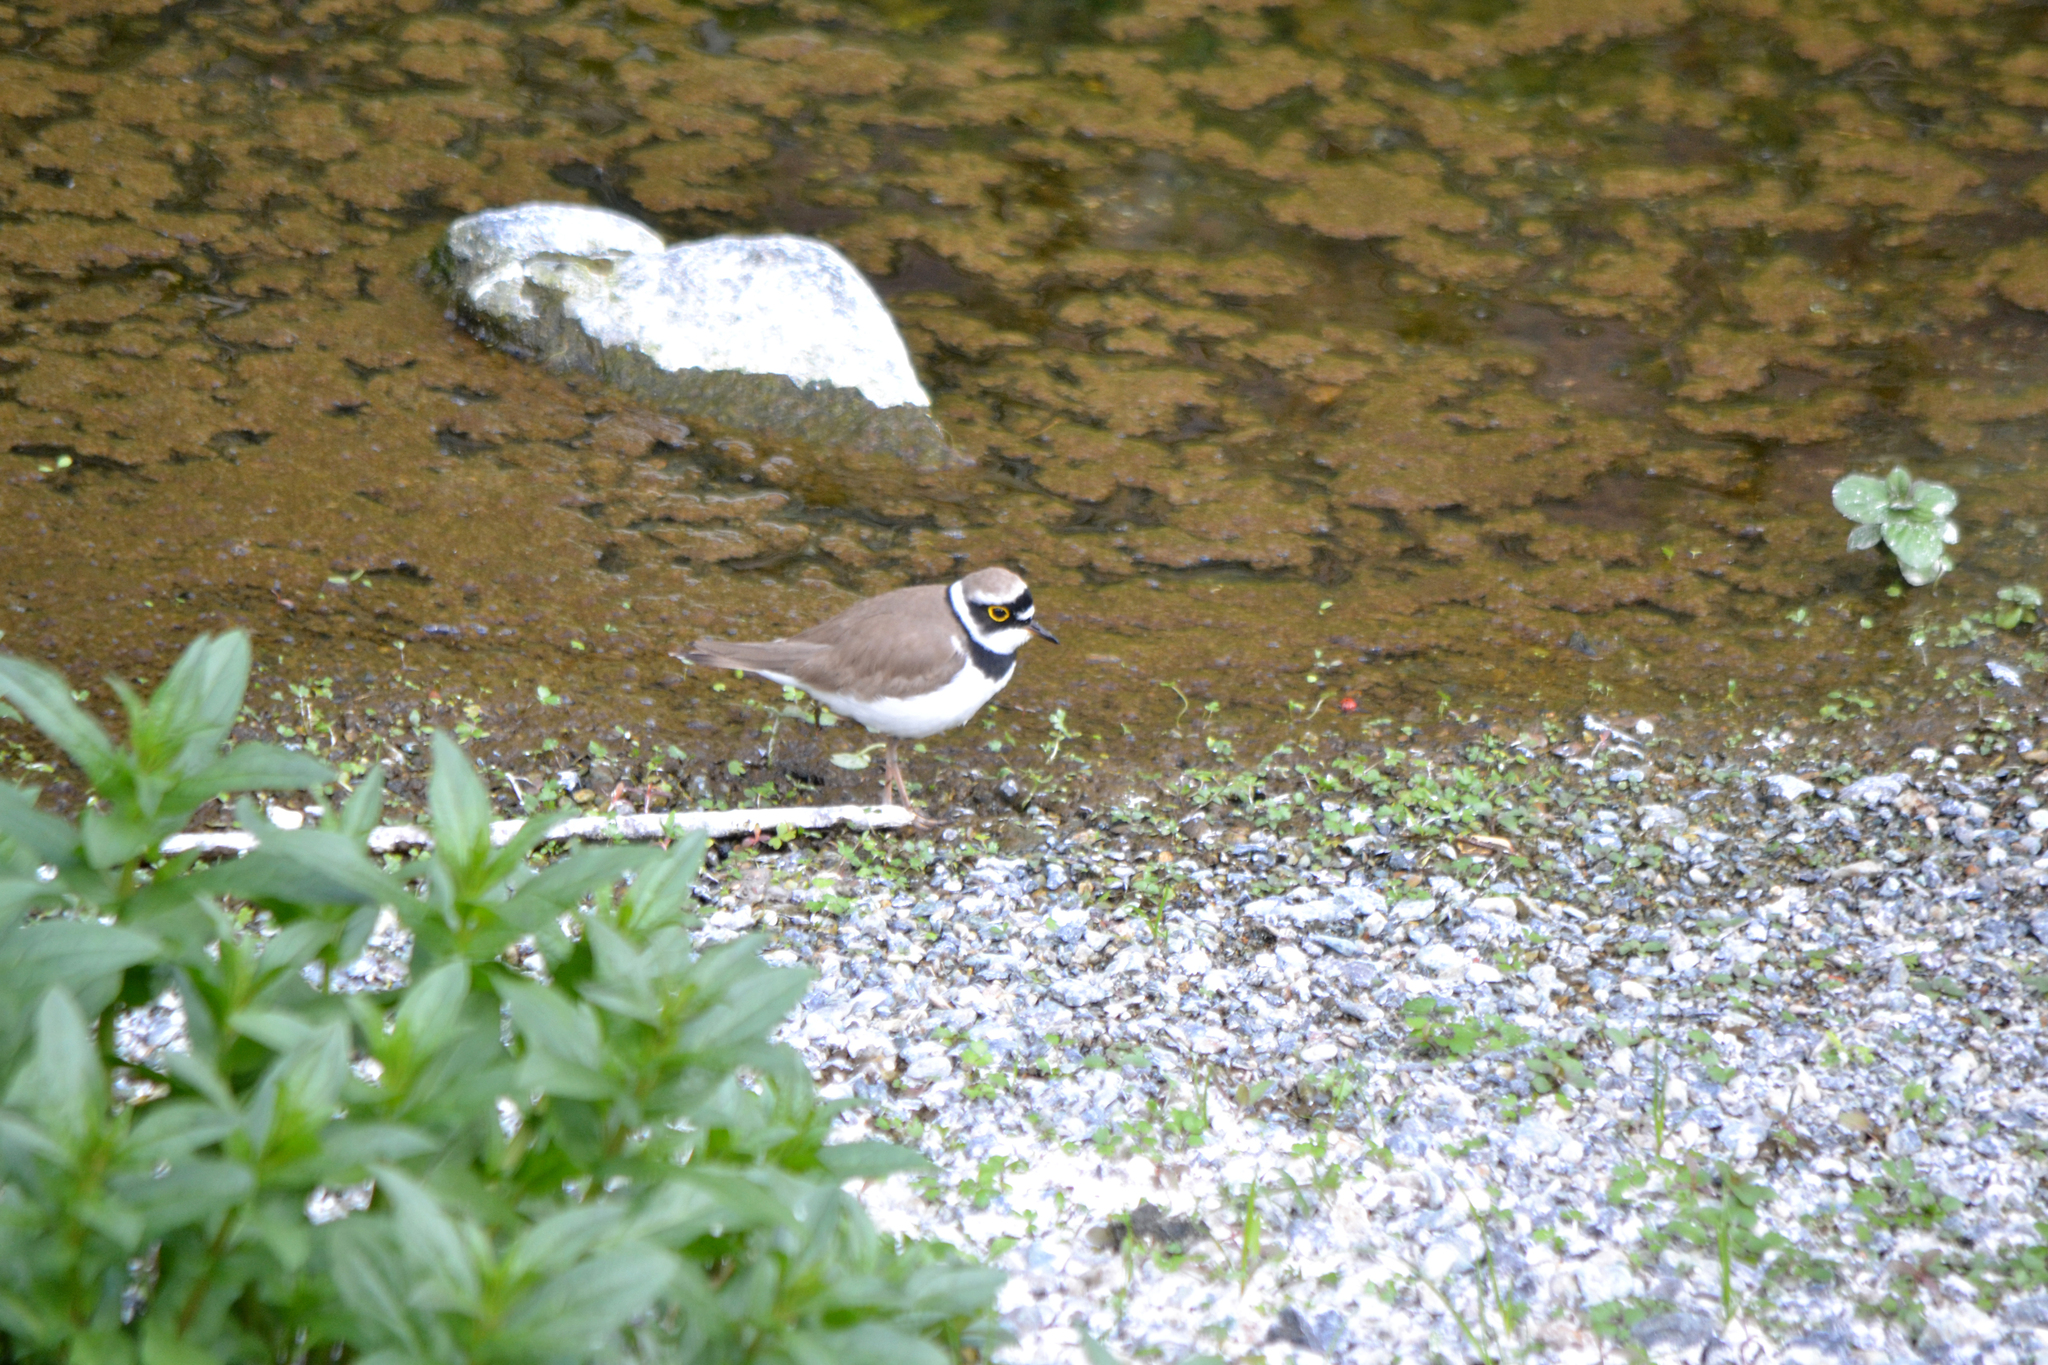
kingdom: Animalia
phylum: Chordata
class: Aves
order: Charadriiformes
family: Charadriidae
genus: Charadrius
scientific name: Charadrius dubius
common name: Little ringed plover
